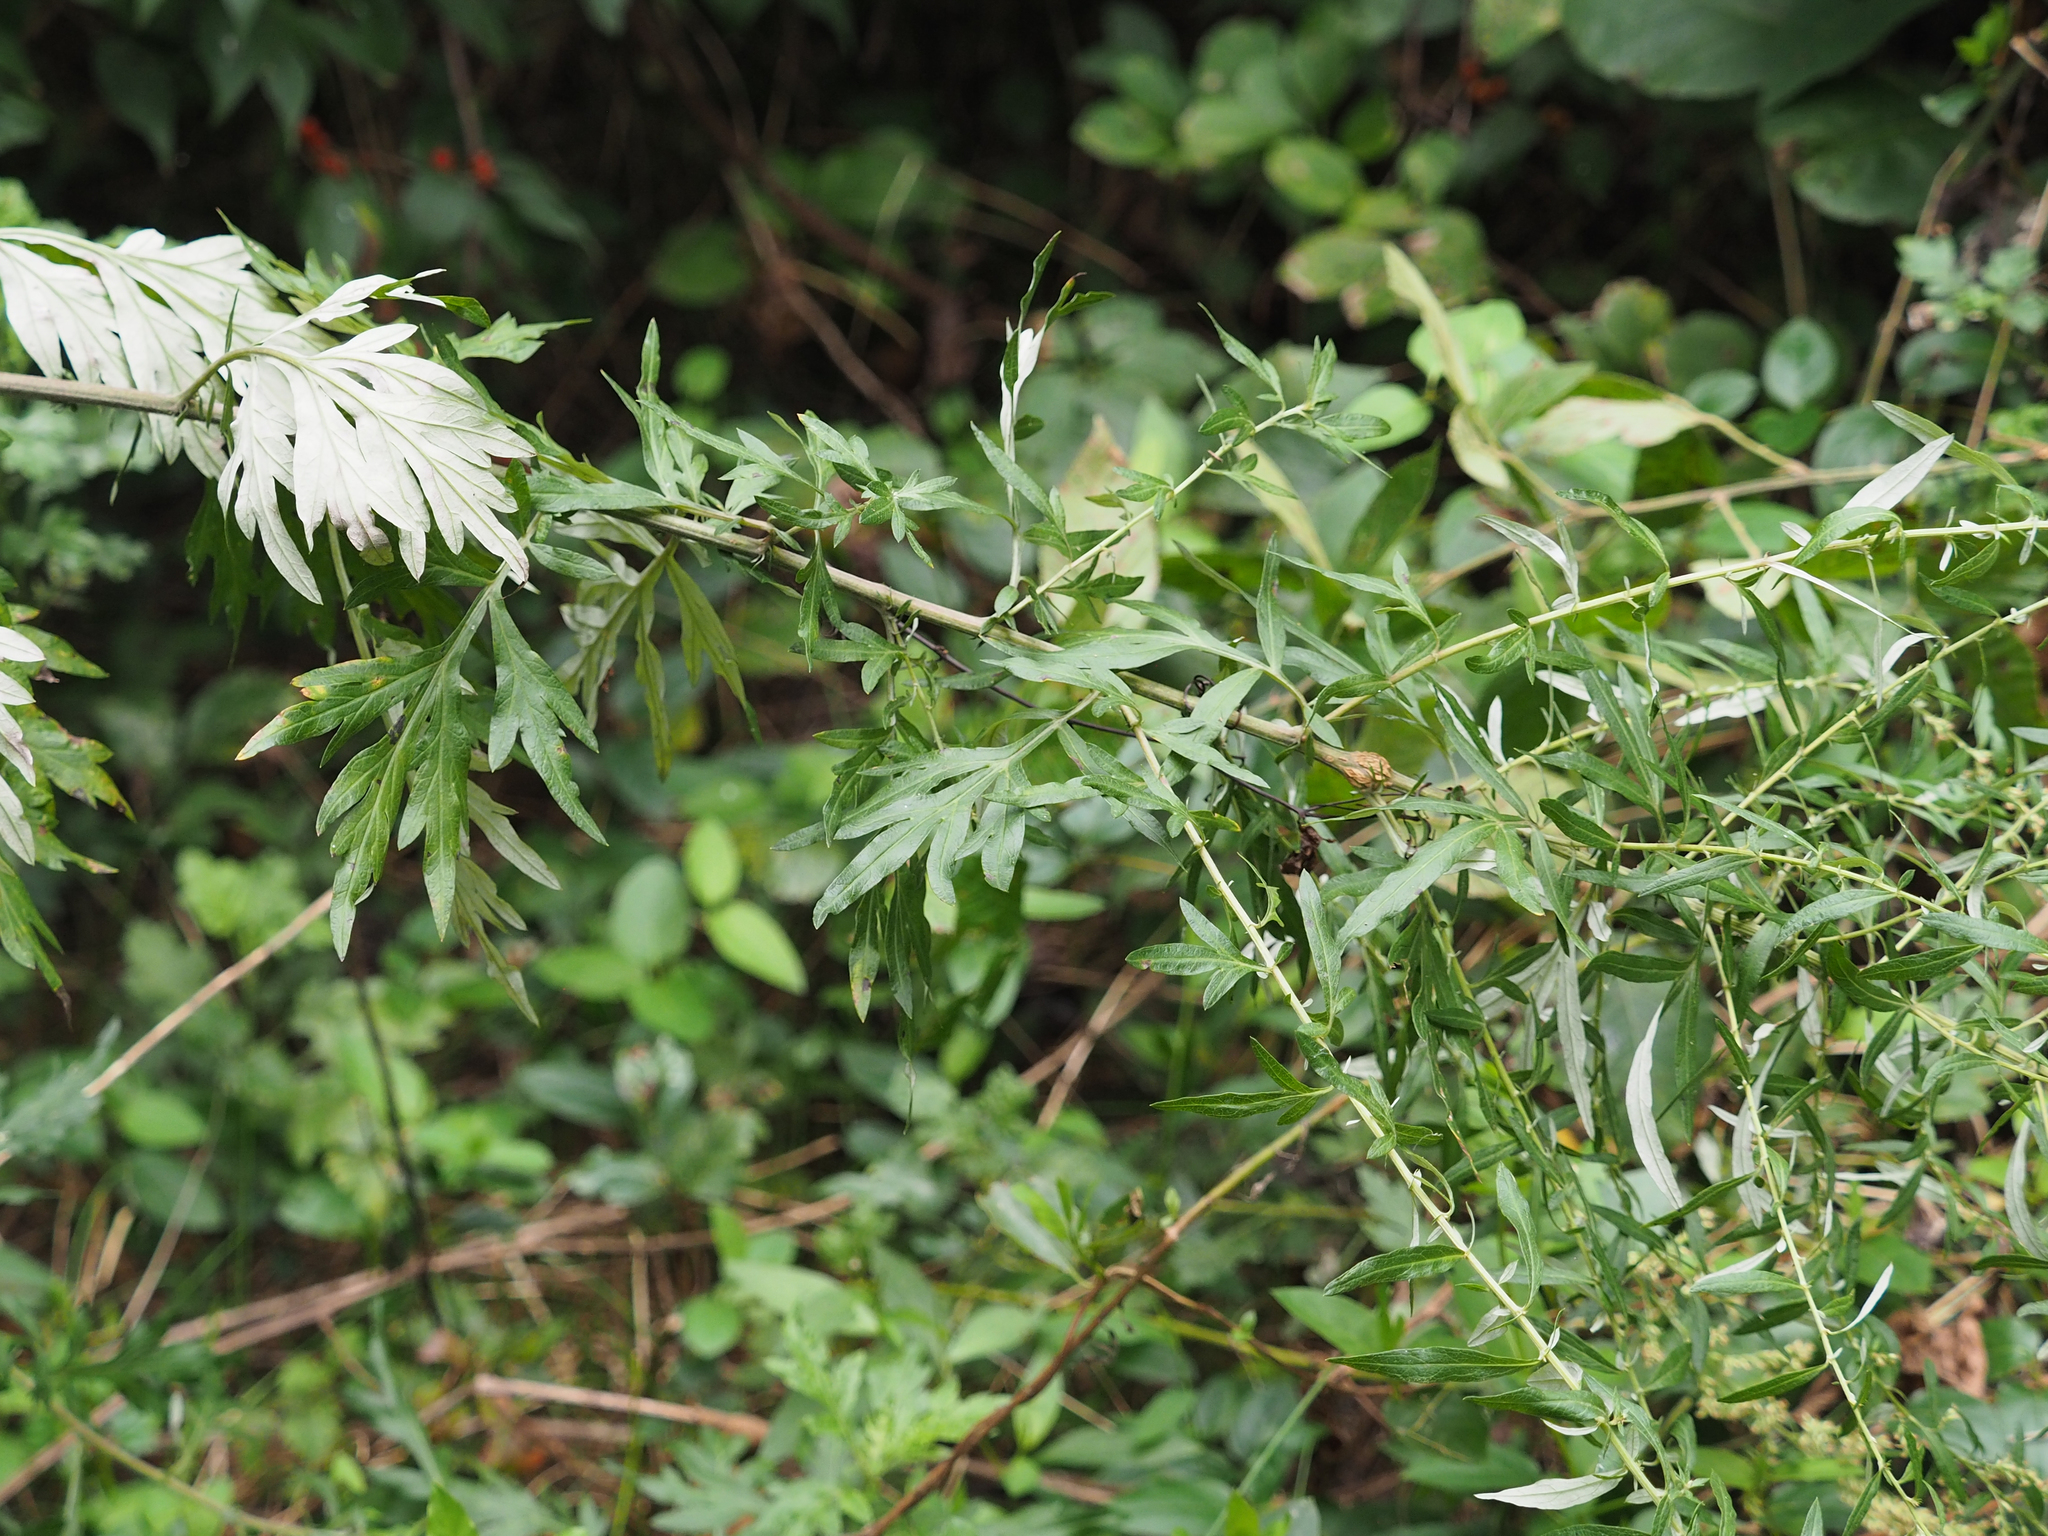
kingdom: Plantae
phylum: Tracheophyta
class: Magnoliopsida
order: Asterales
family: Asteraceae
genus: Artemisia
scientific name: Artemisia vulgaris
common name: Mugwort
